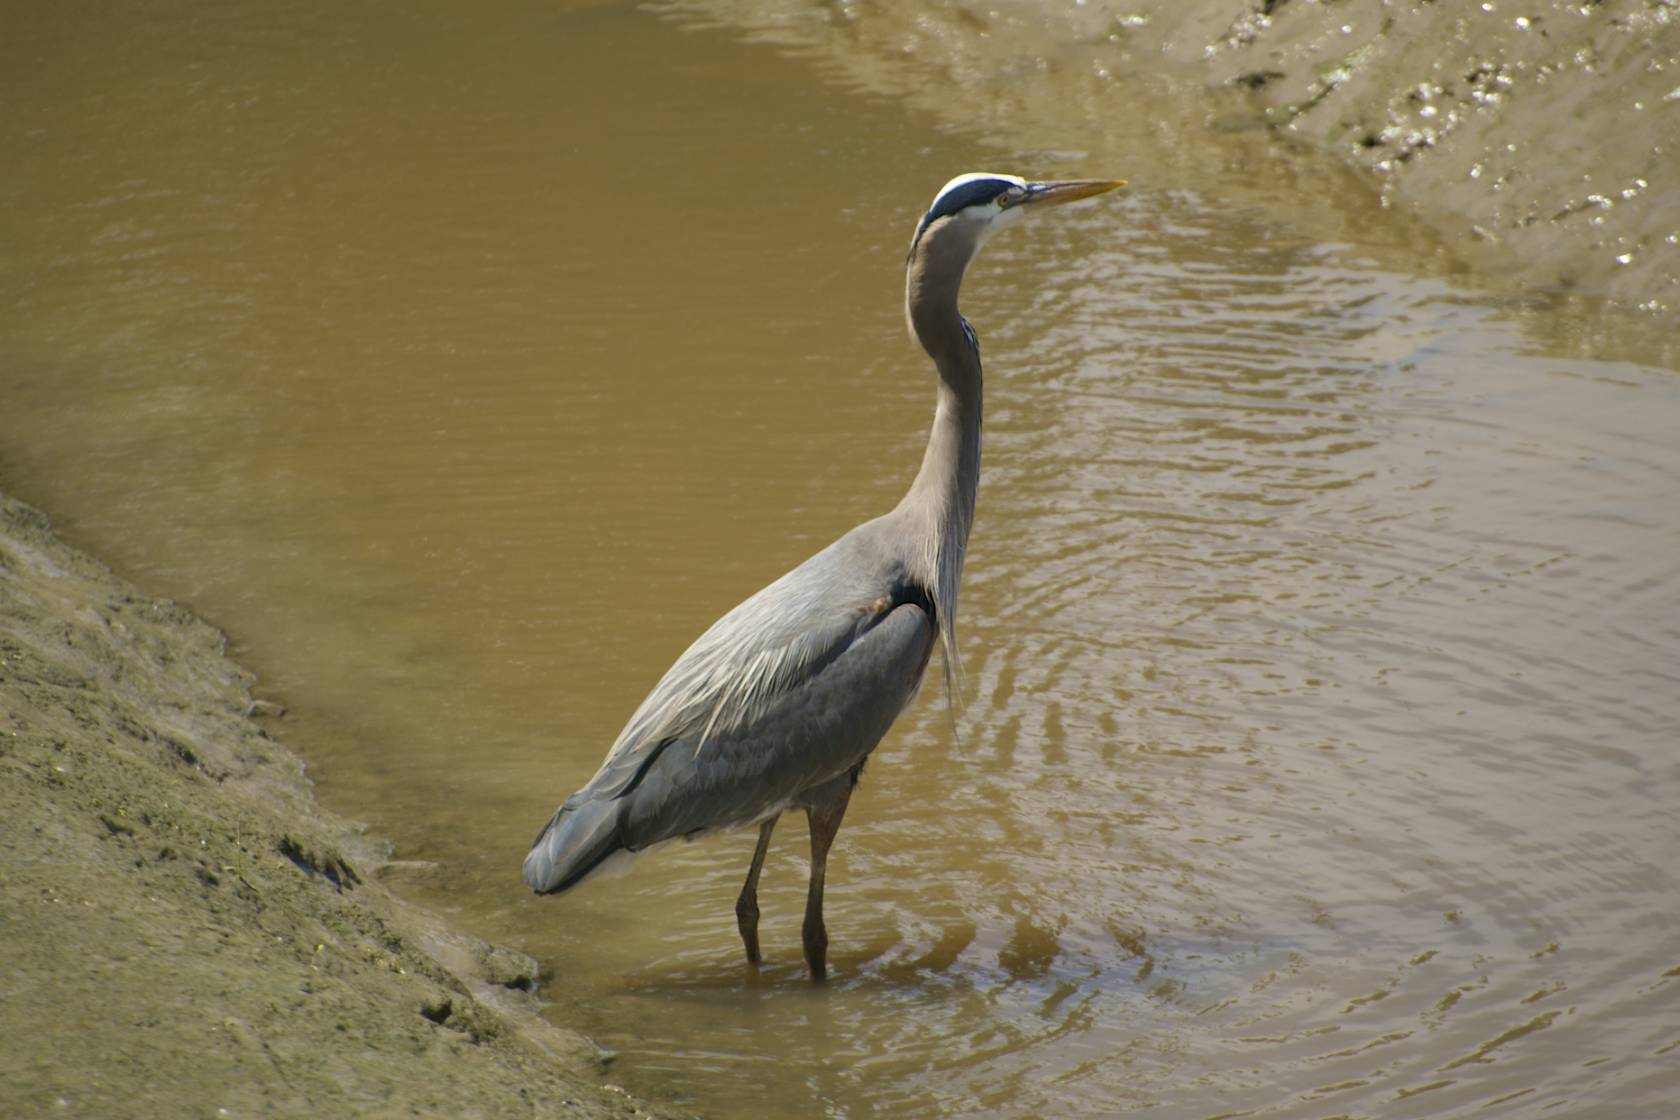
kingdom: Animalia
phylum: Chordata
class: Aves
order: Pelecaniformes
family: Ardeidae
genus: Ardea
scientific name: Ardea herodias
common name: Great blue heron
